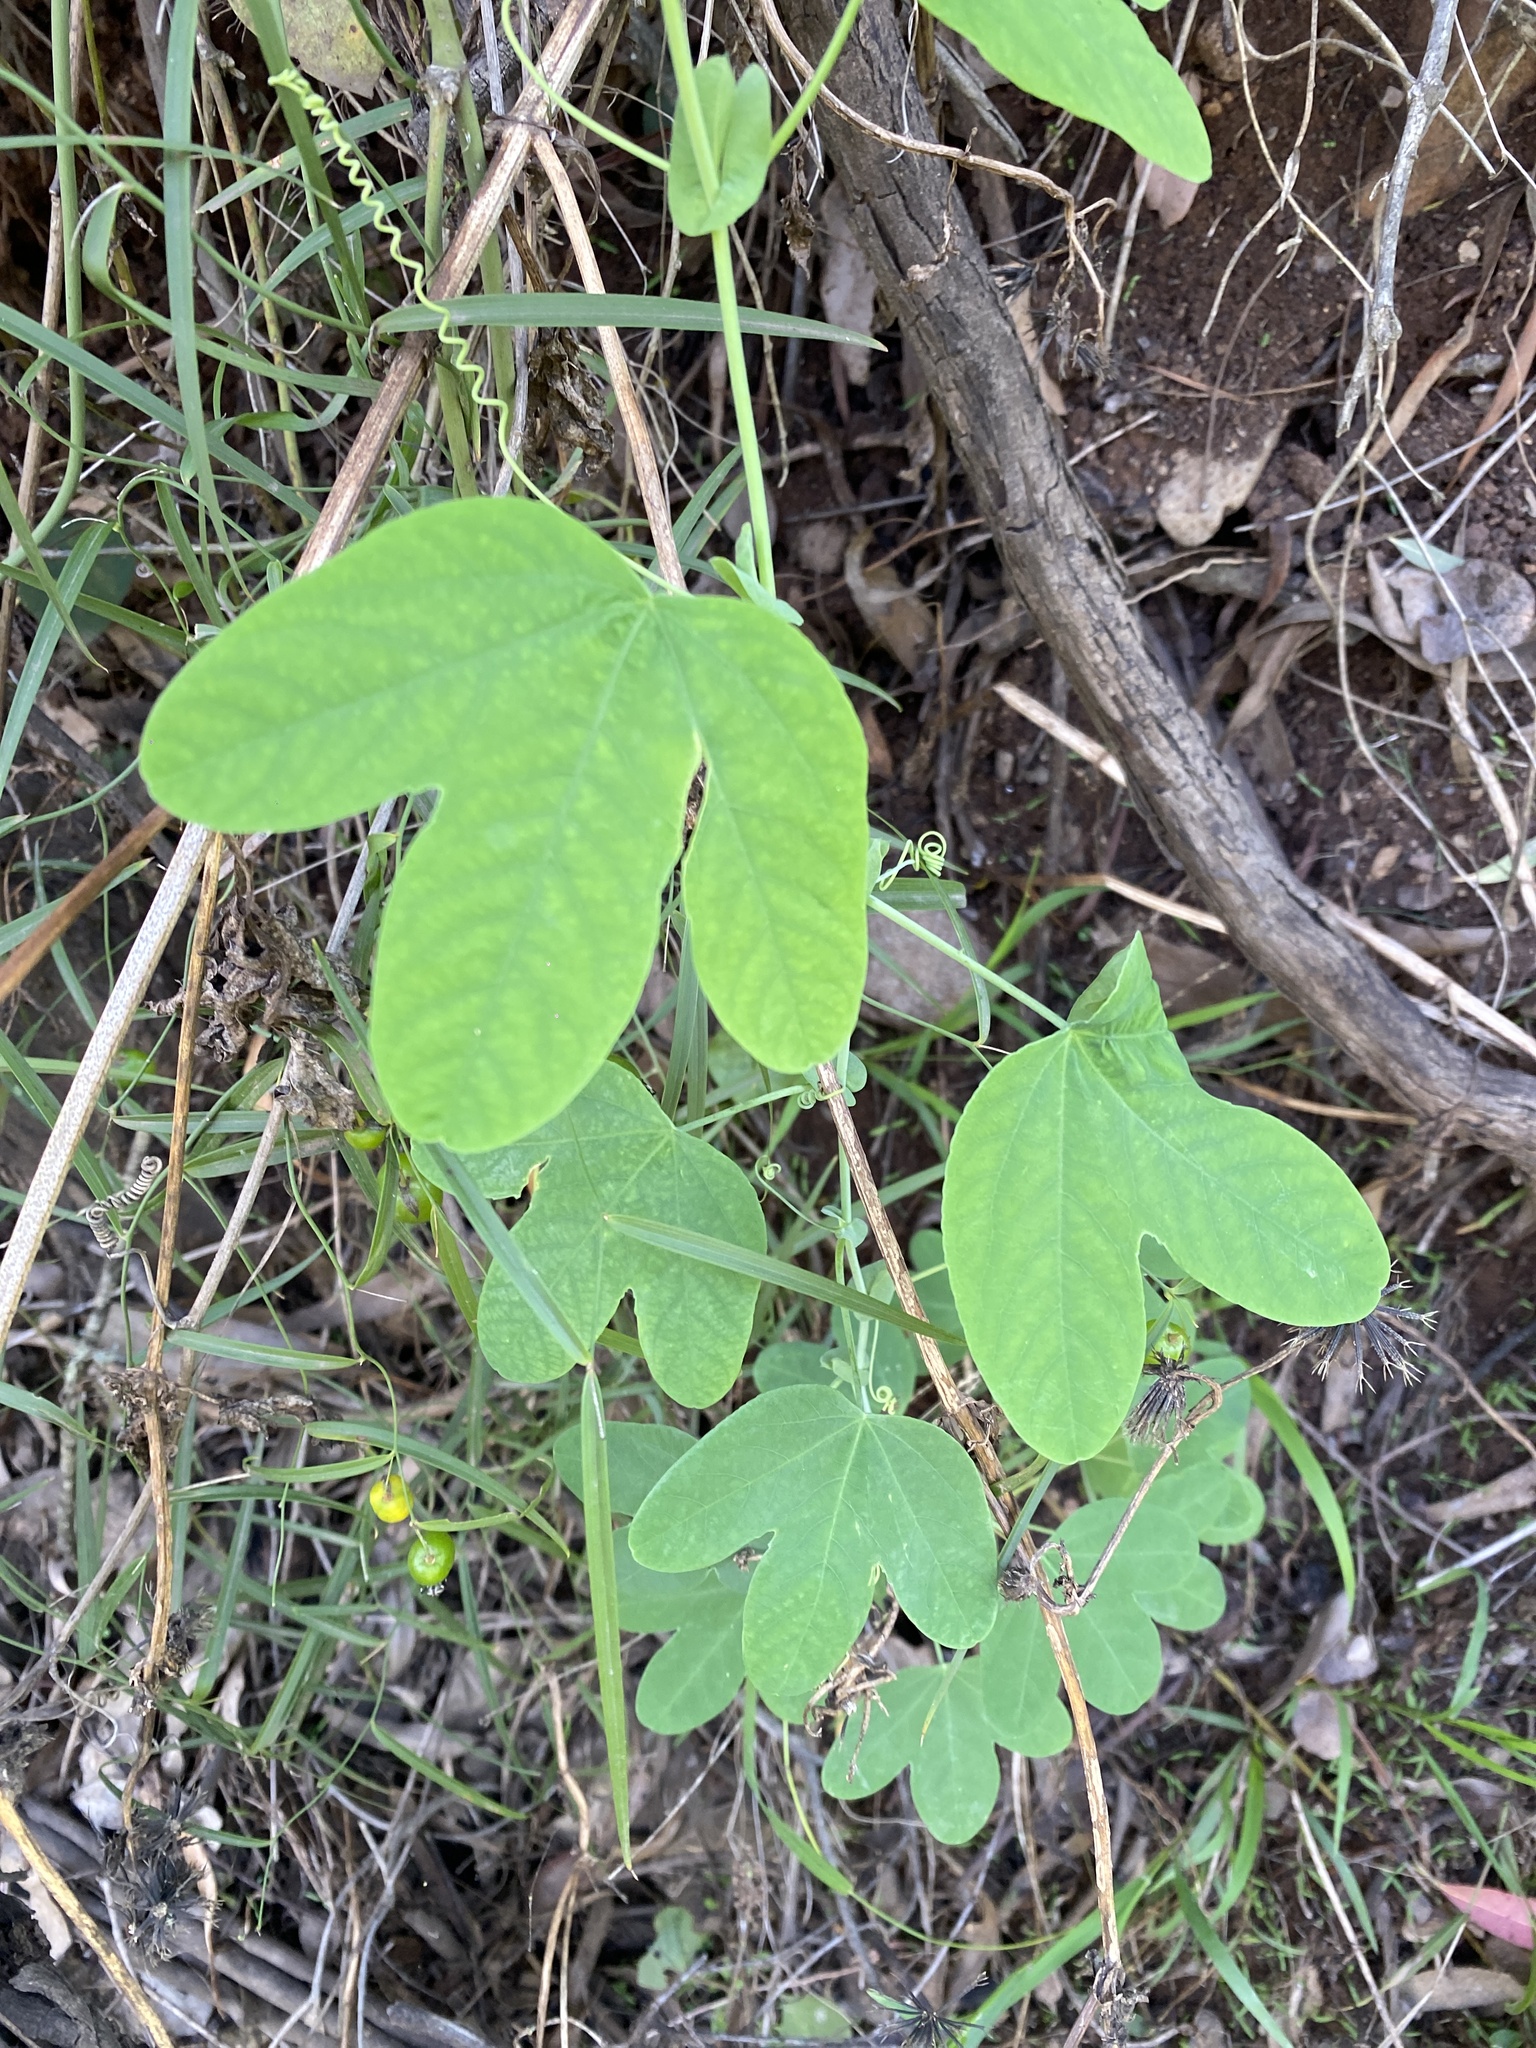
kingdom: Plantae
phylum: Tracheophyta
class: Magnoliopsida
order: Malpighiales
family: Passifloraceae
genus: Passiflora
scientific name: Passiflora subpeltata
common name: White passionflower
